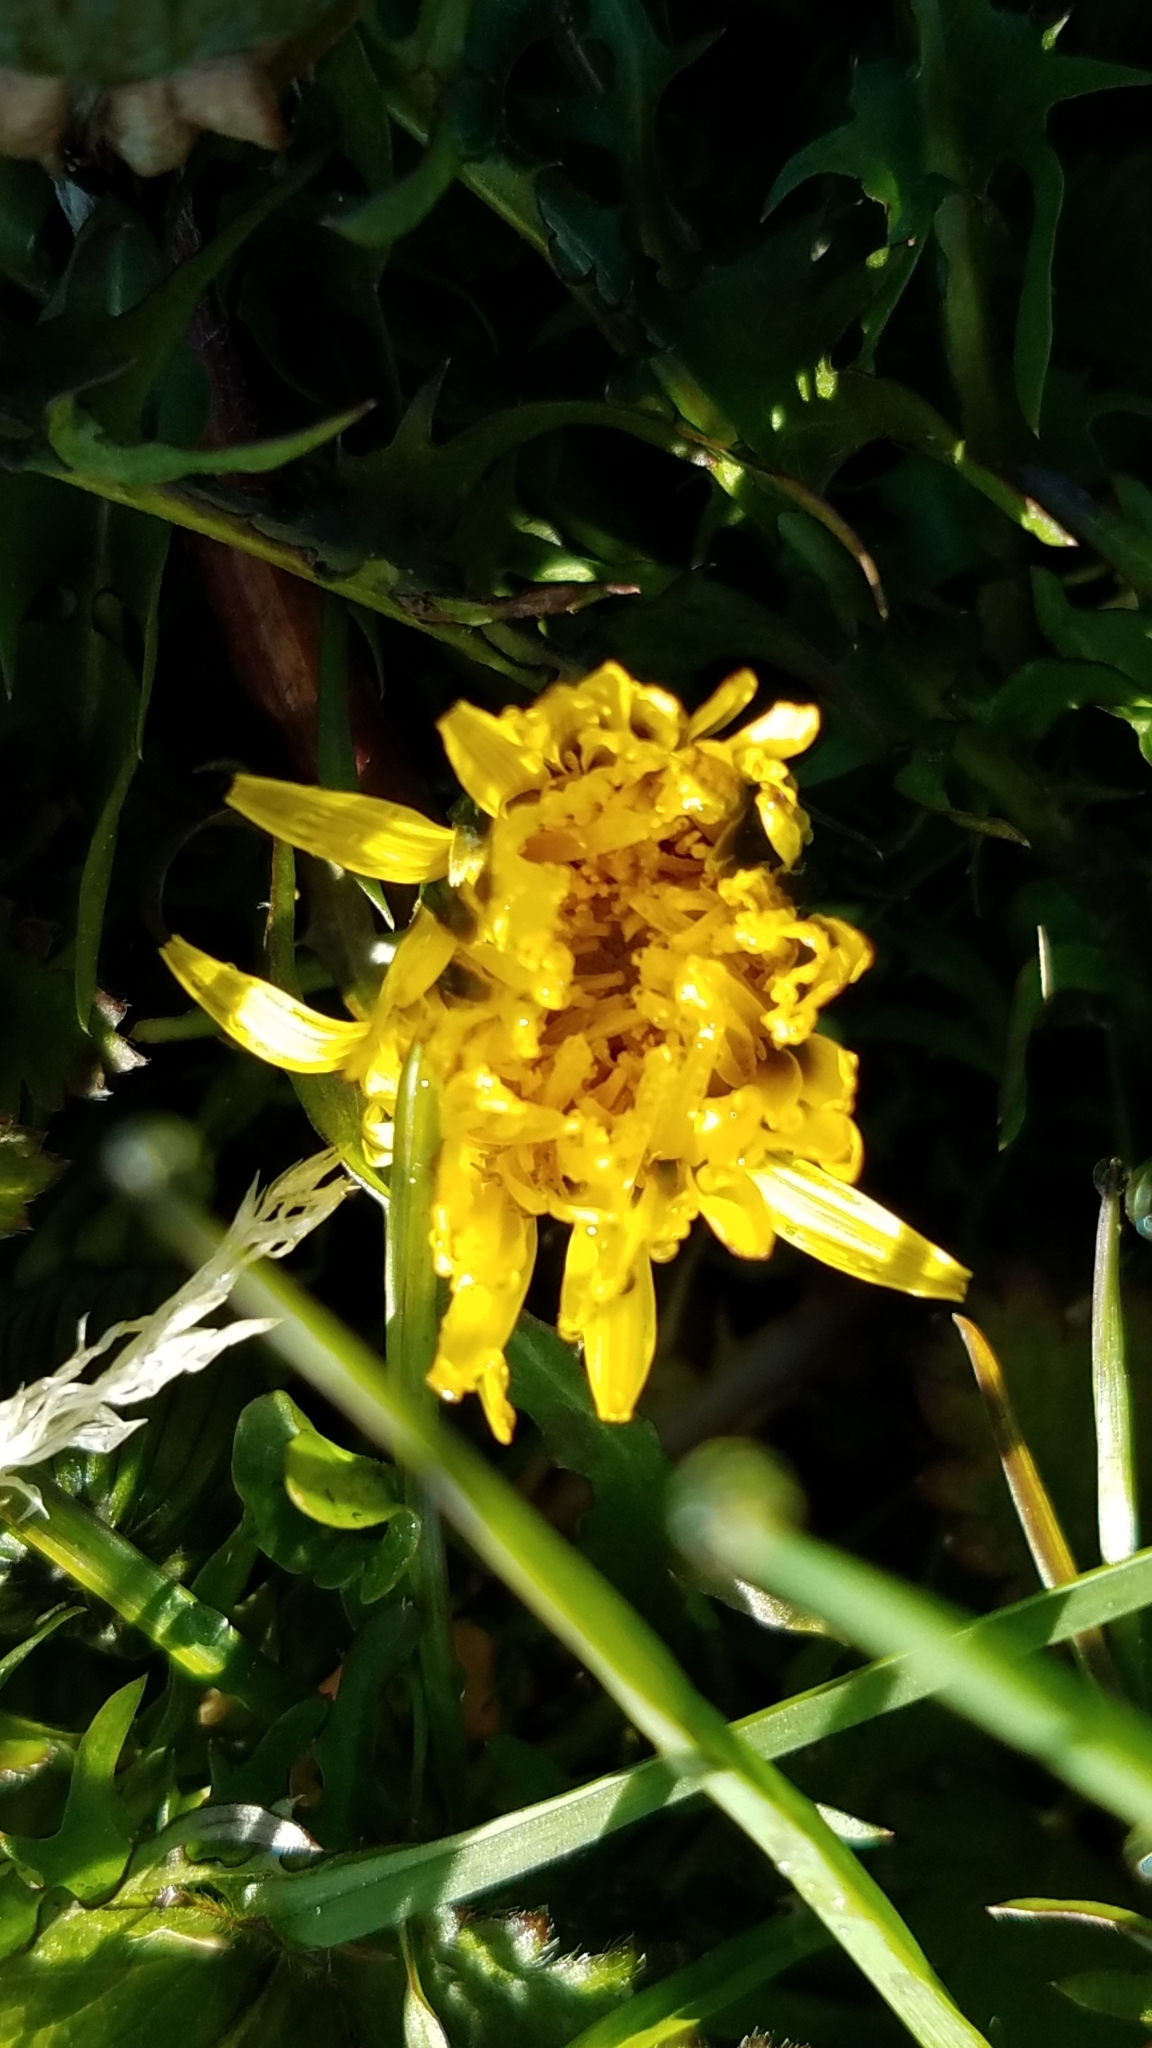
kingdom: Plantae
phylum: Tracheophyta
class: Magnoliopsida
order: Asterales
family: Asteraceae
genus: Taraxacum
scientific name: Taraxacum officinale
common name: Common dandelion
